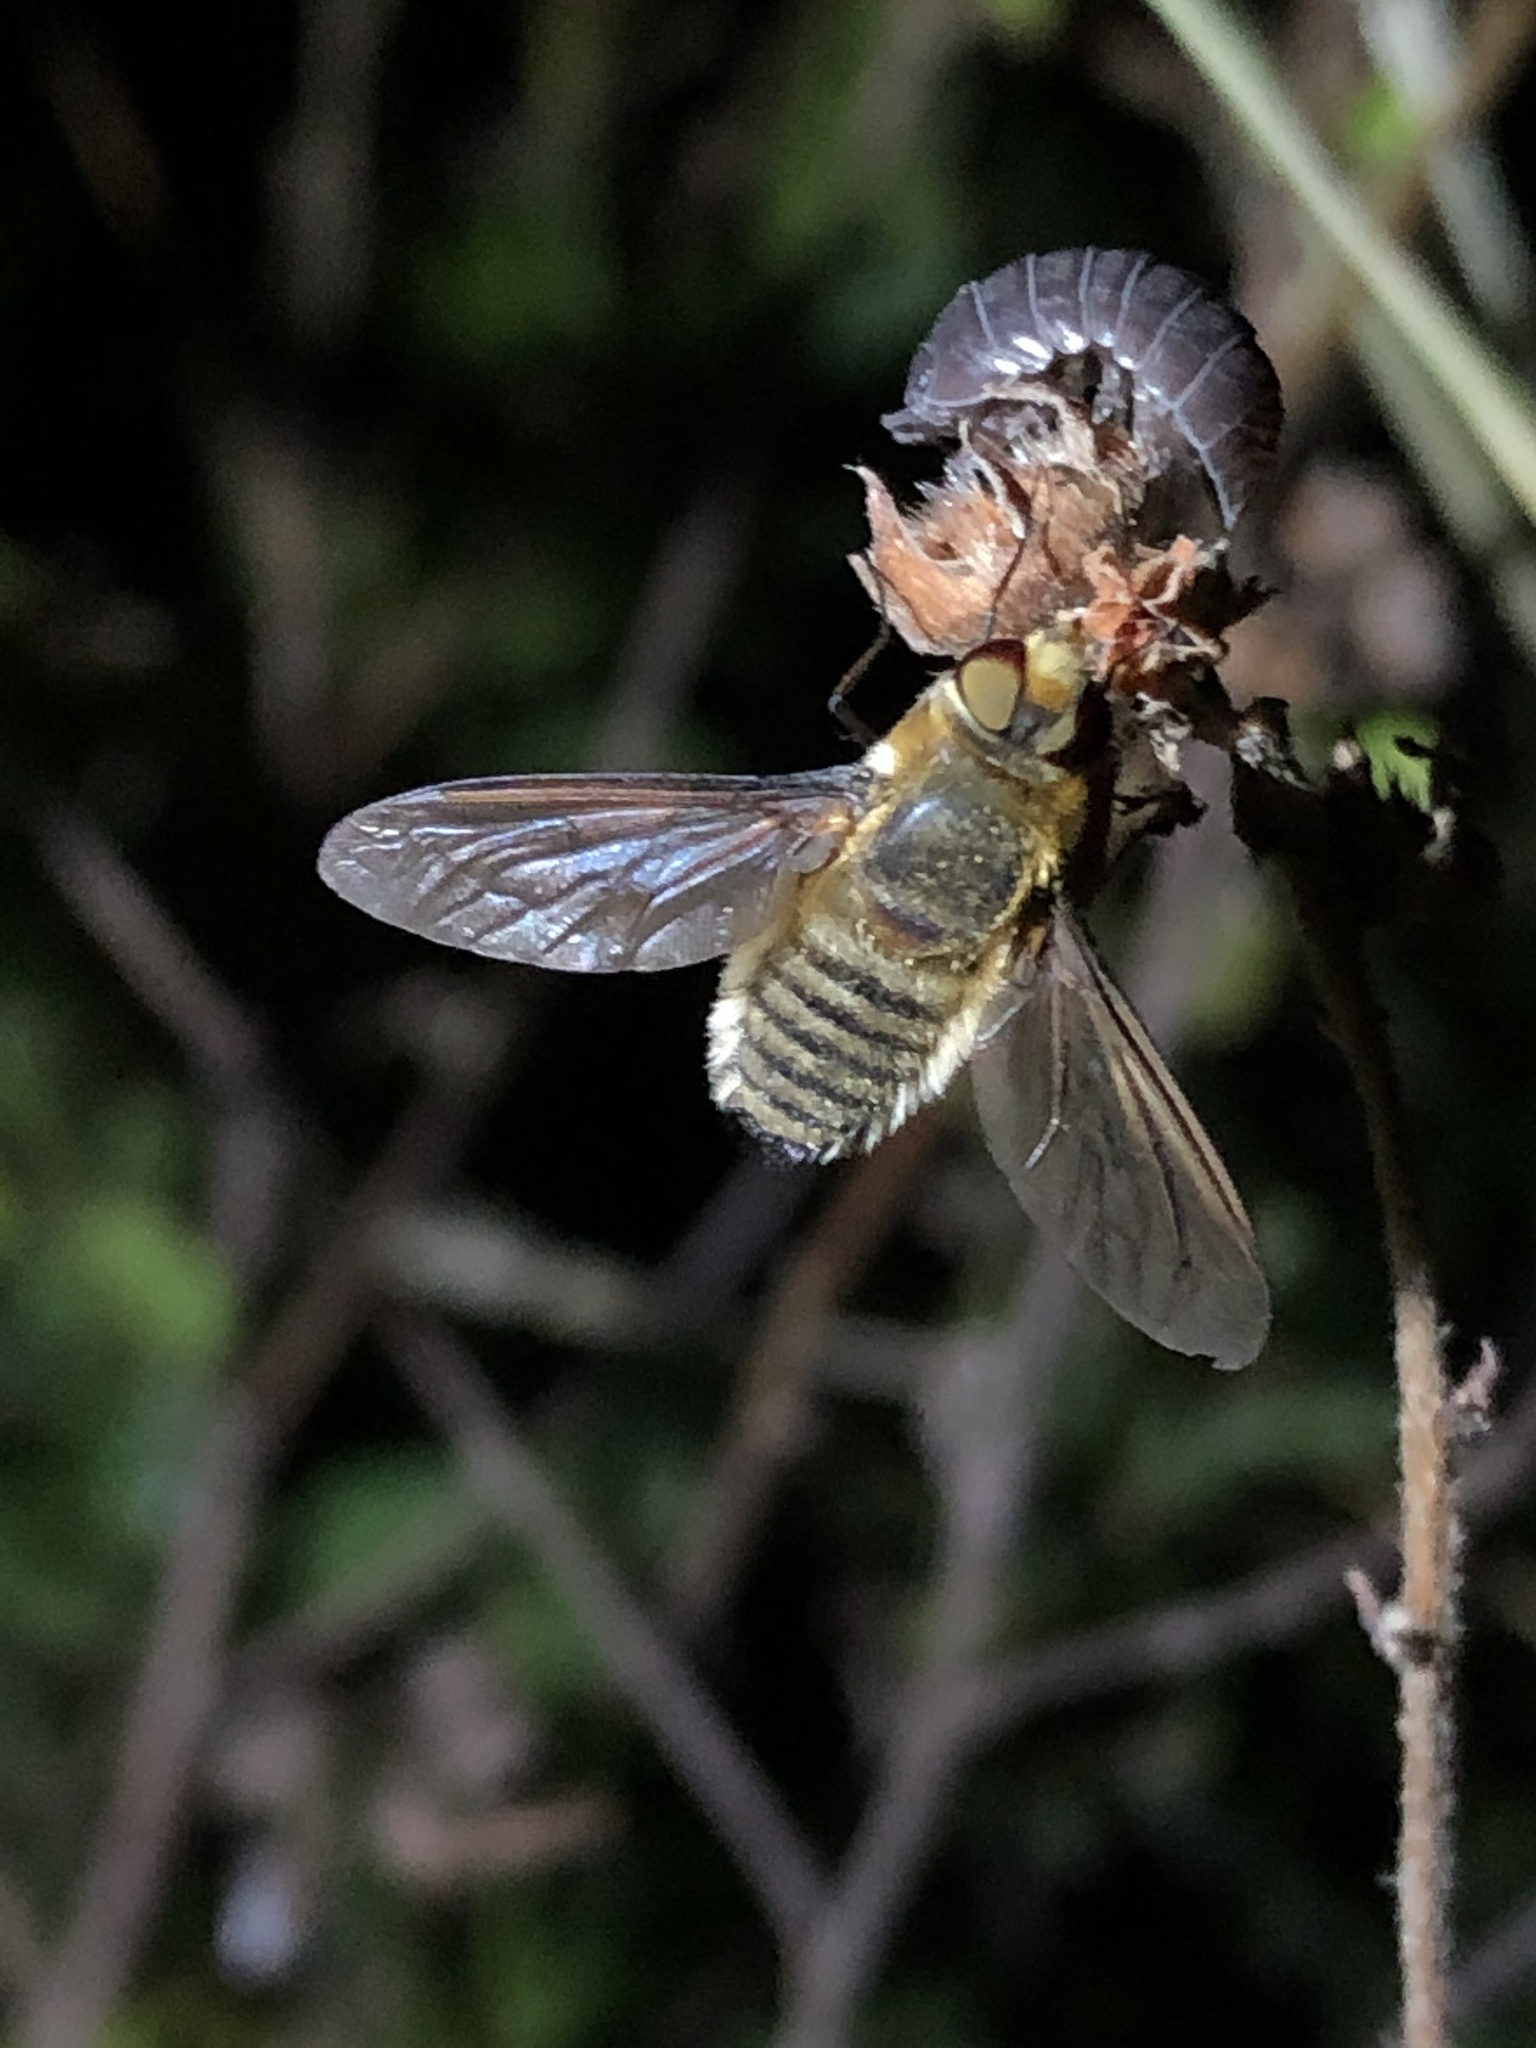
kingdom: Animalia
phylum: Arthropoda
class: Insecta
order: Diptera
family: Bombyliidae
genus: Poecilanthrax
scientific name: Poecilanthrax lucifer
